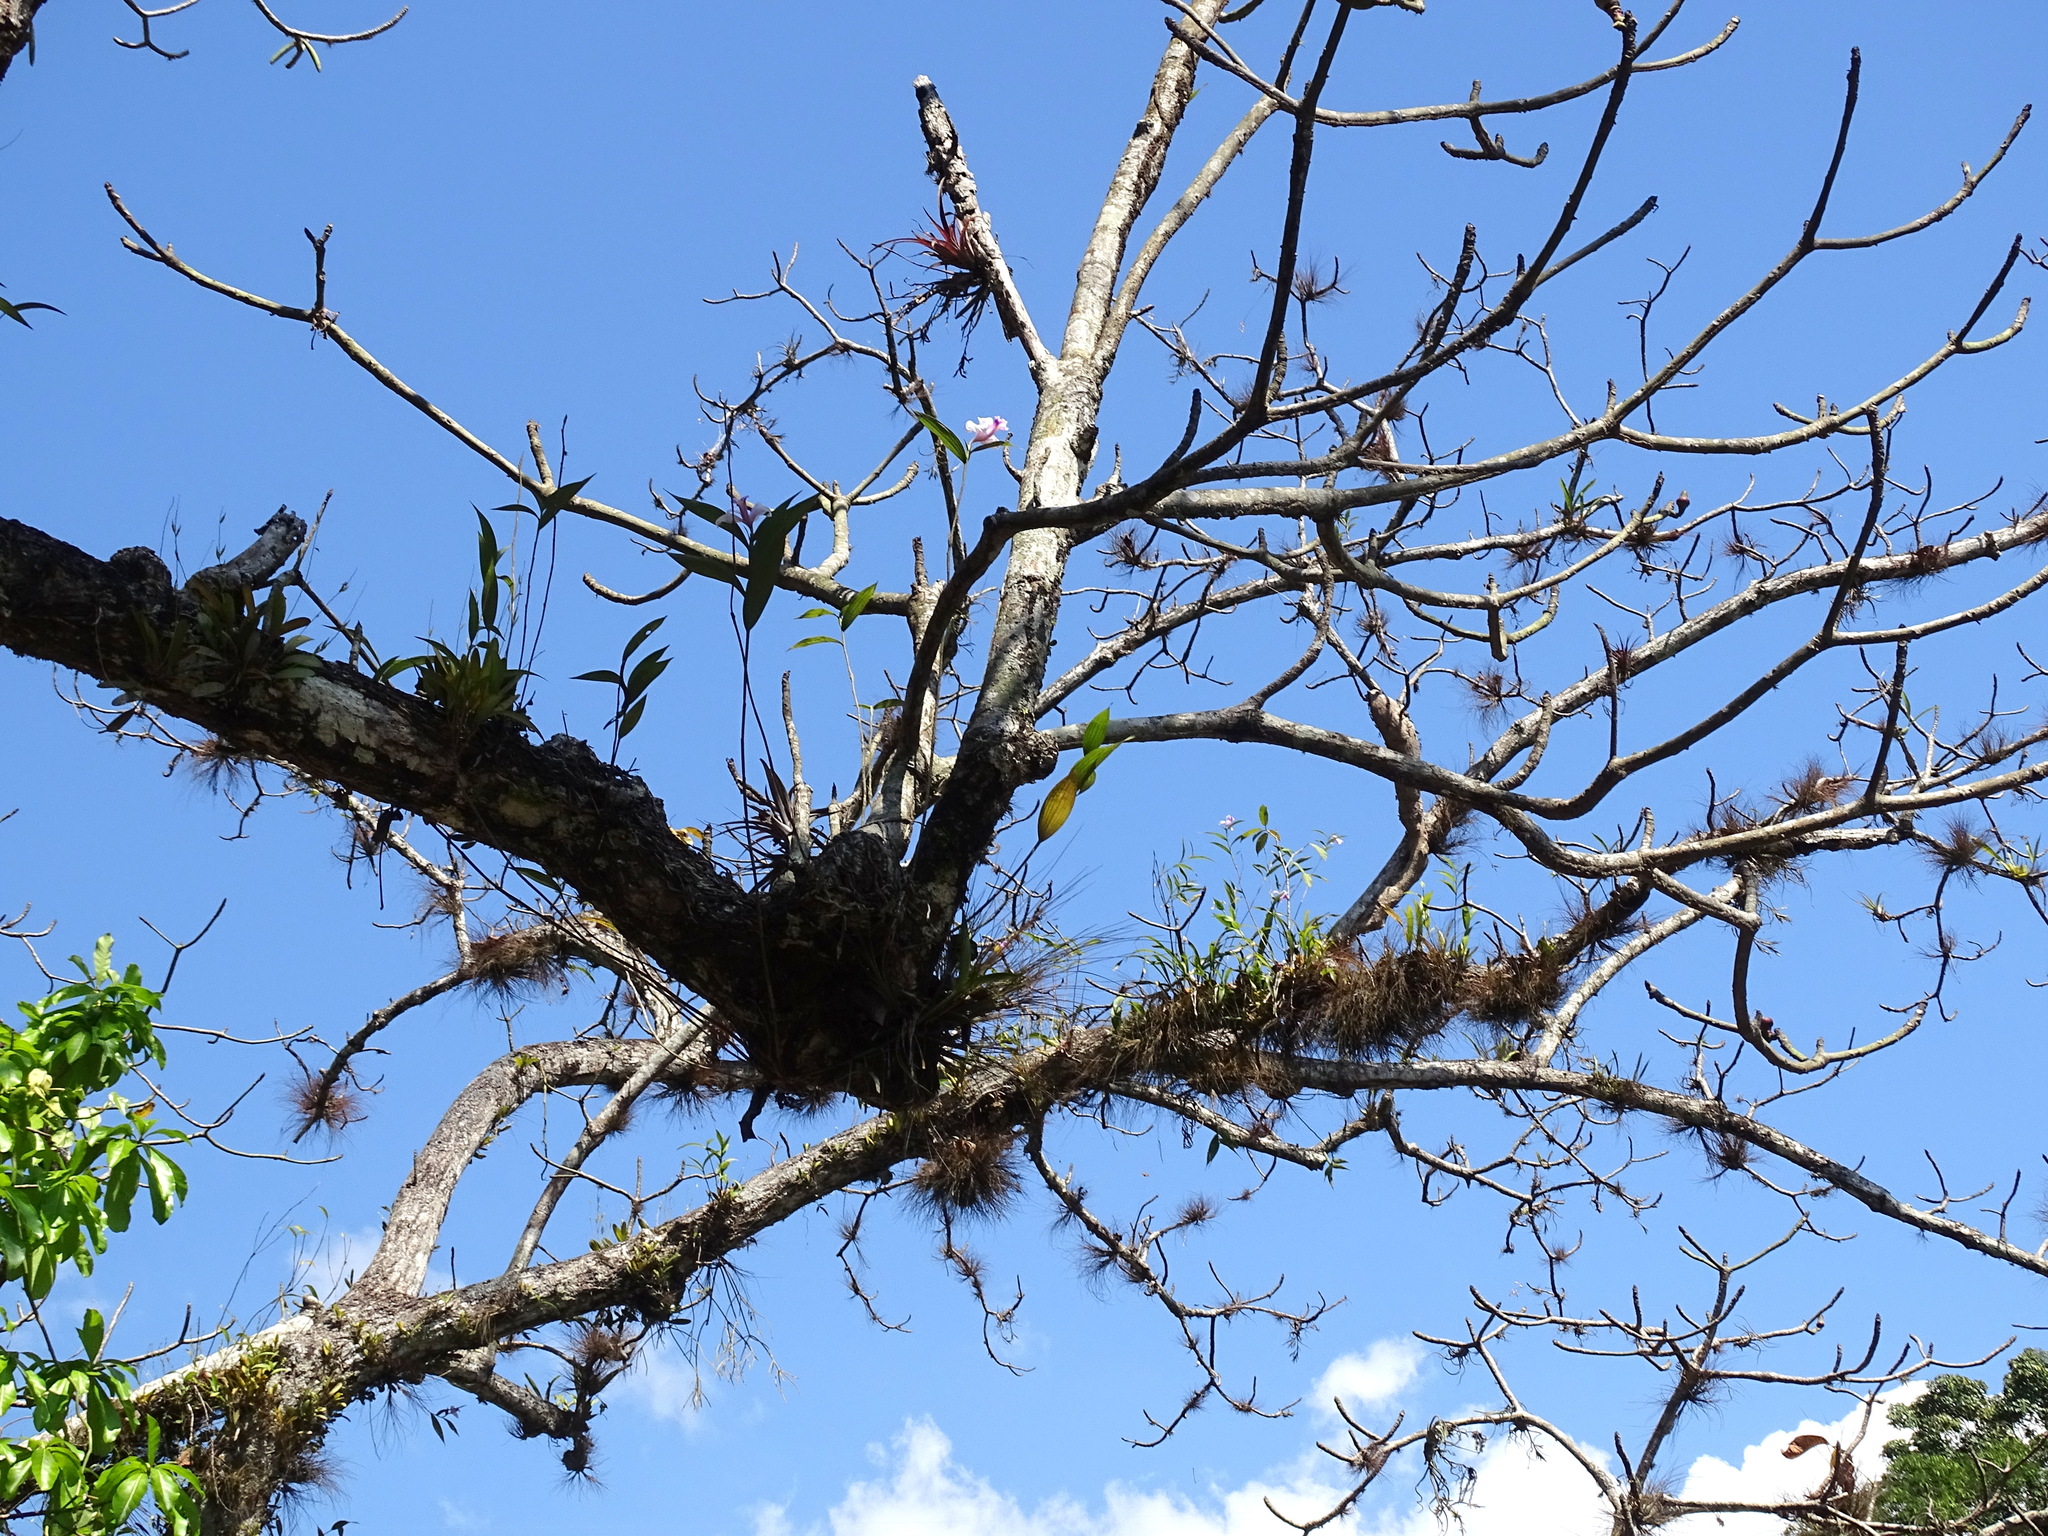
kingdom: Plantae
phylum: Tracheophyta
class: Liliopsida
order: Asparagales
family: Orchidaceae
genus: Sobralia
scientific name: Sobralia decora
